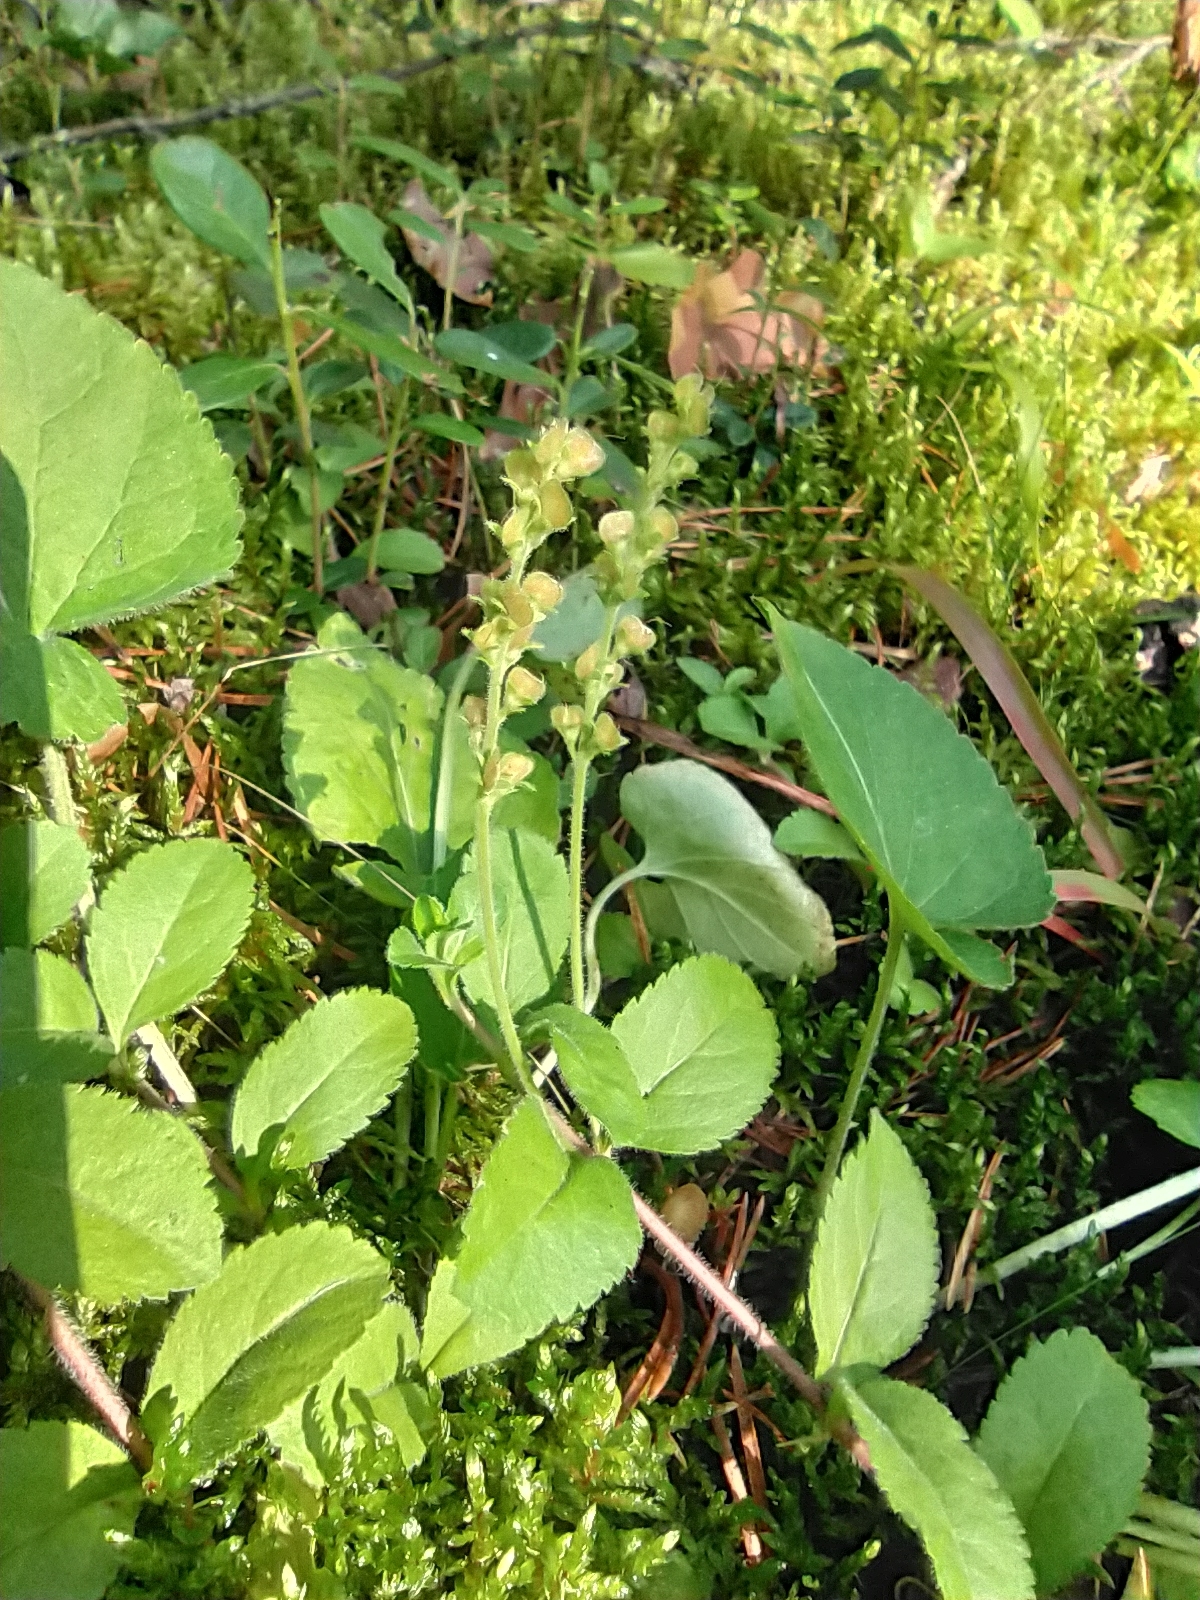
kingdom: Plantae
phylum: Tracheophyta
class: Magnoliopsida
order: Lamiales
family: Plantaginaceae
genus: Veronica
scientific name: Veronica officinalis
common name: Common speedwell
